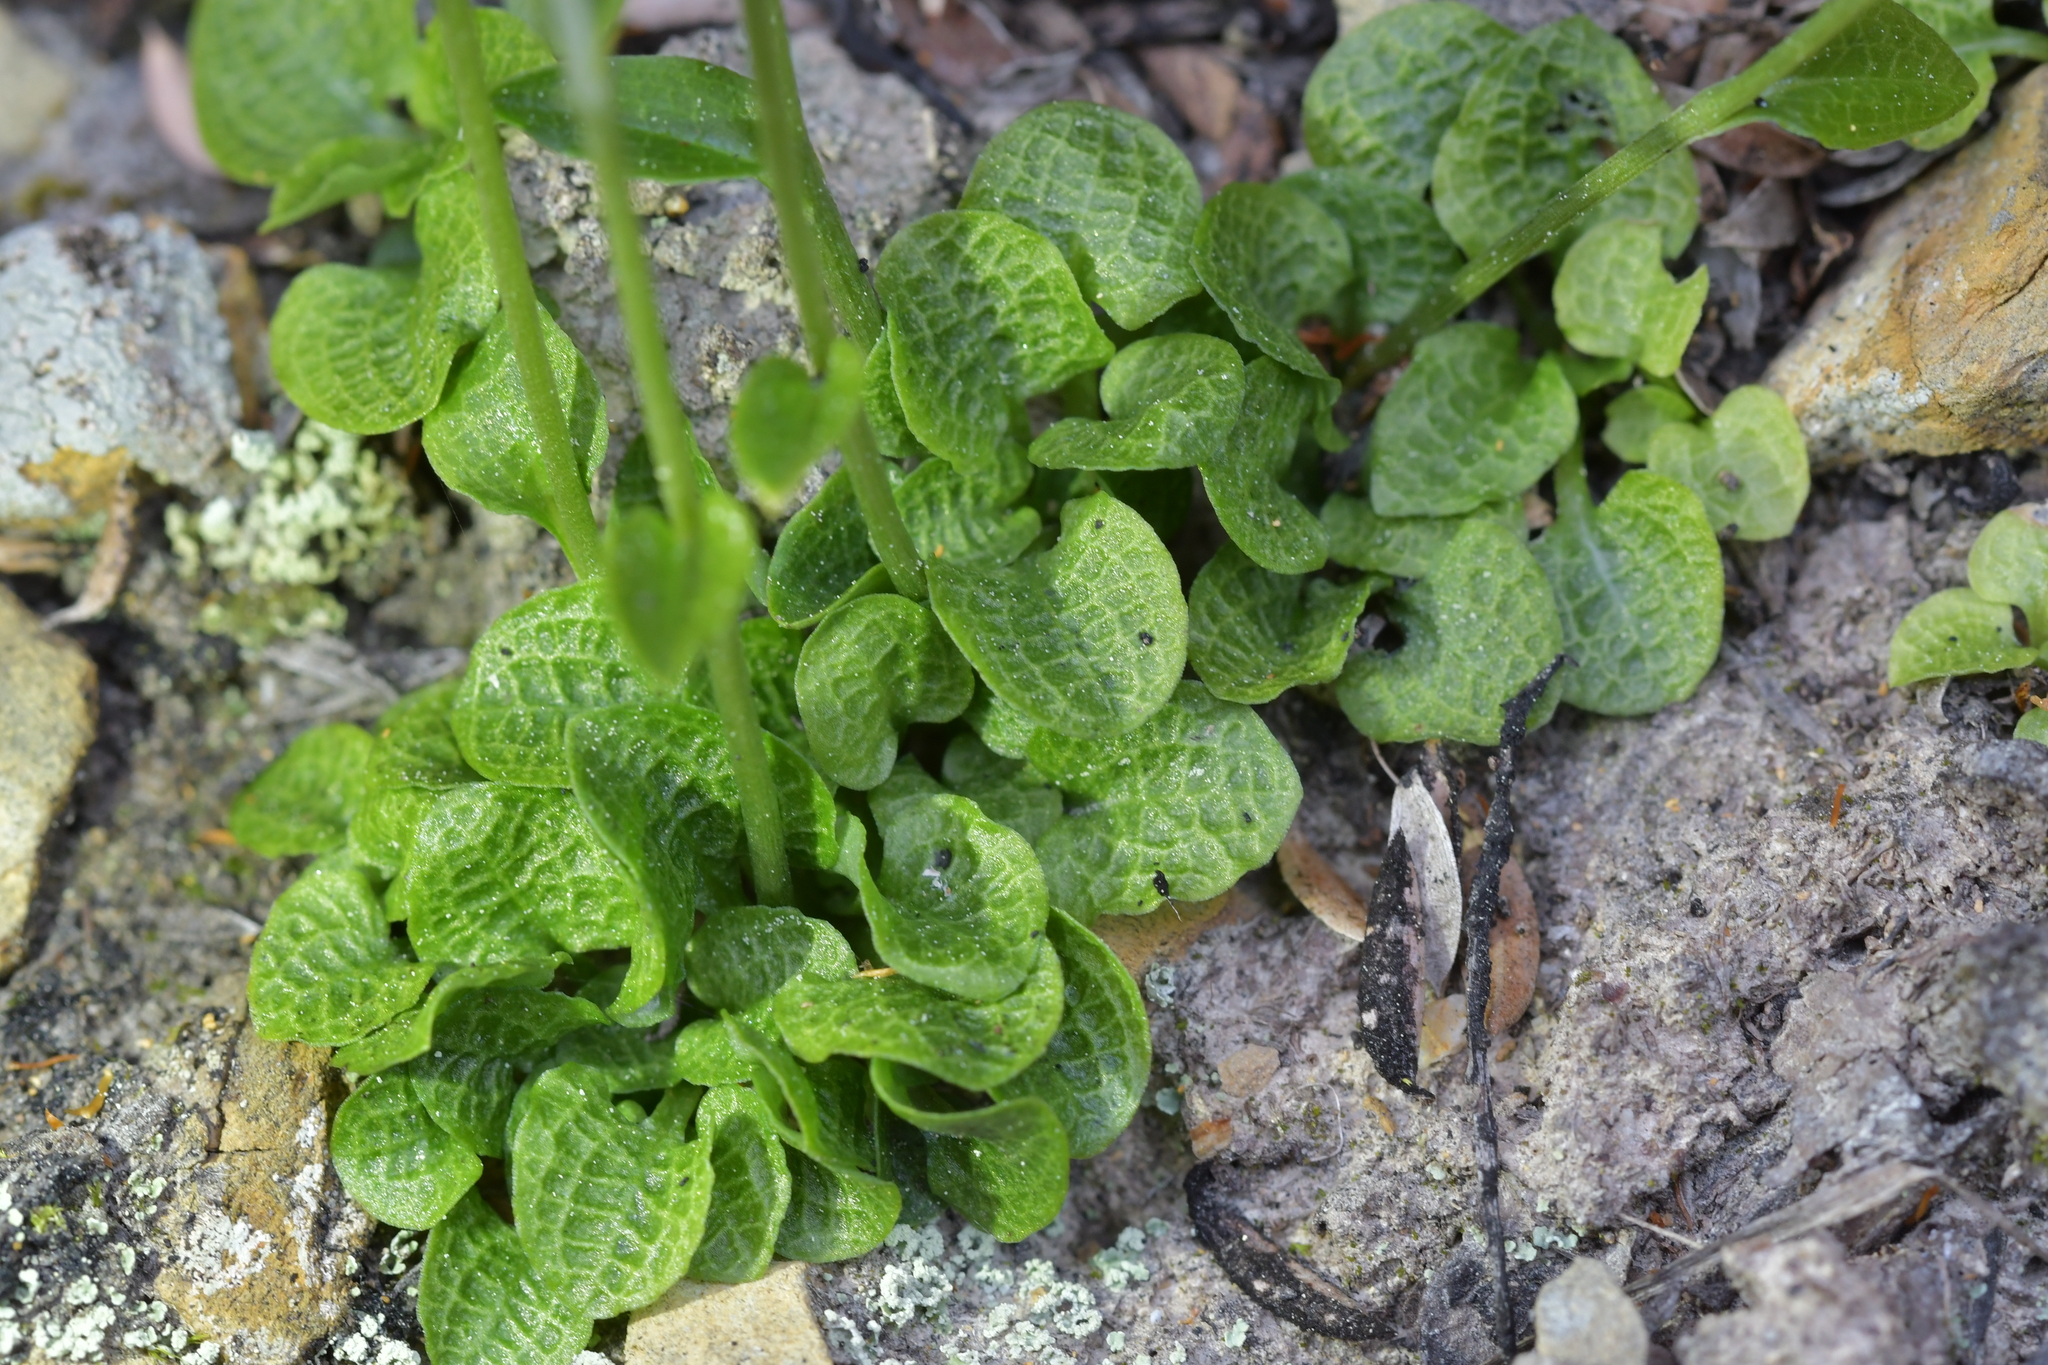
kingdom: Plantae
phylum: Tracheophyta
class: Liliopsida
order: Asparagales
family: Orchidaceae
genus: Pterostylis
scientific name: Pterostylis trullifolia
